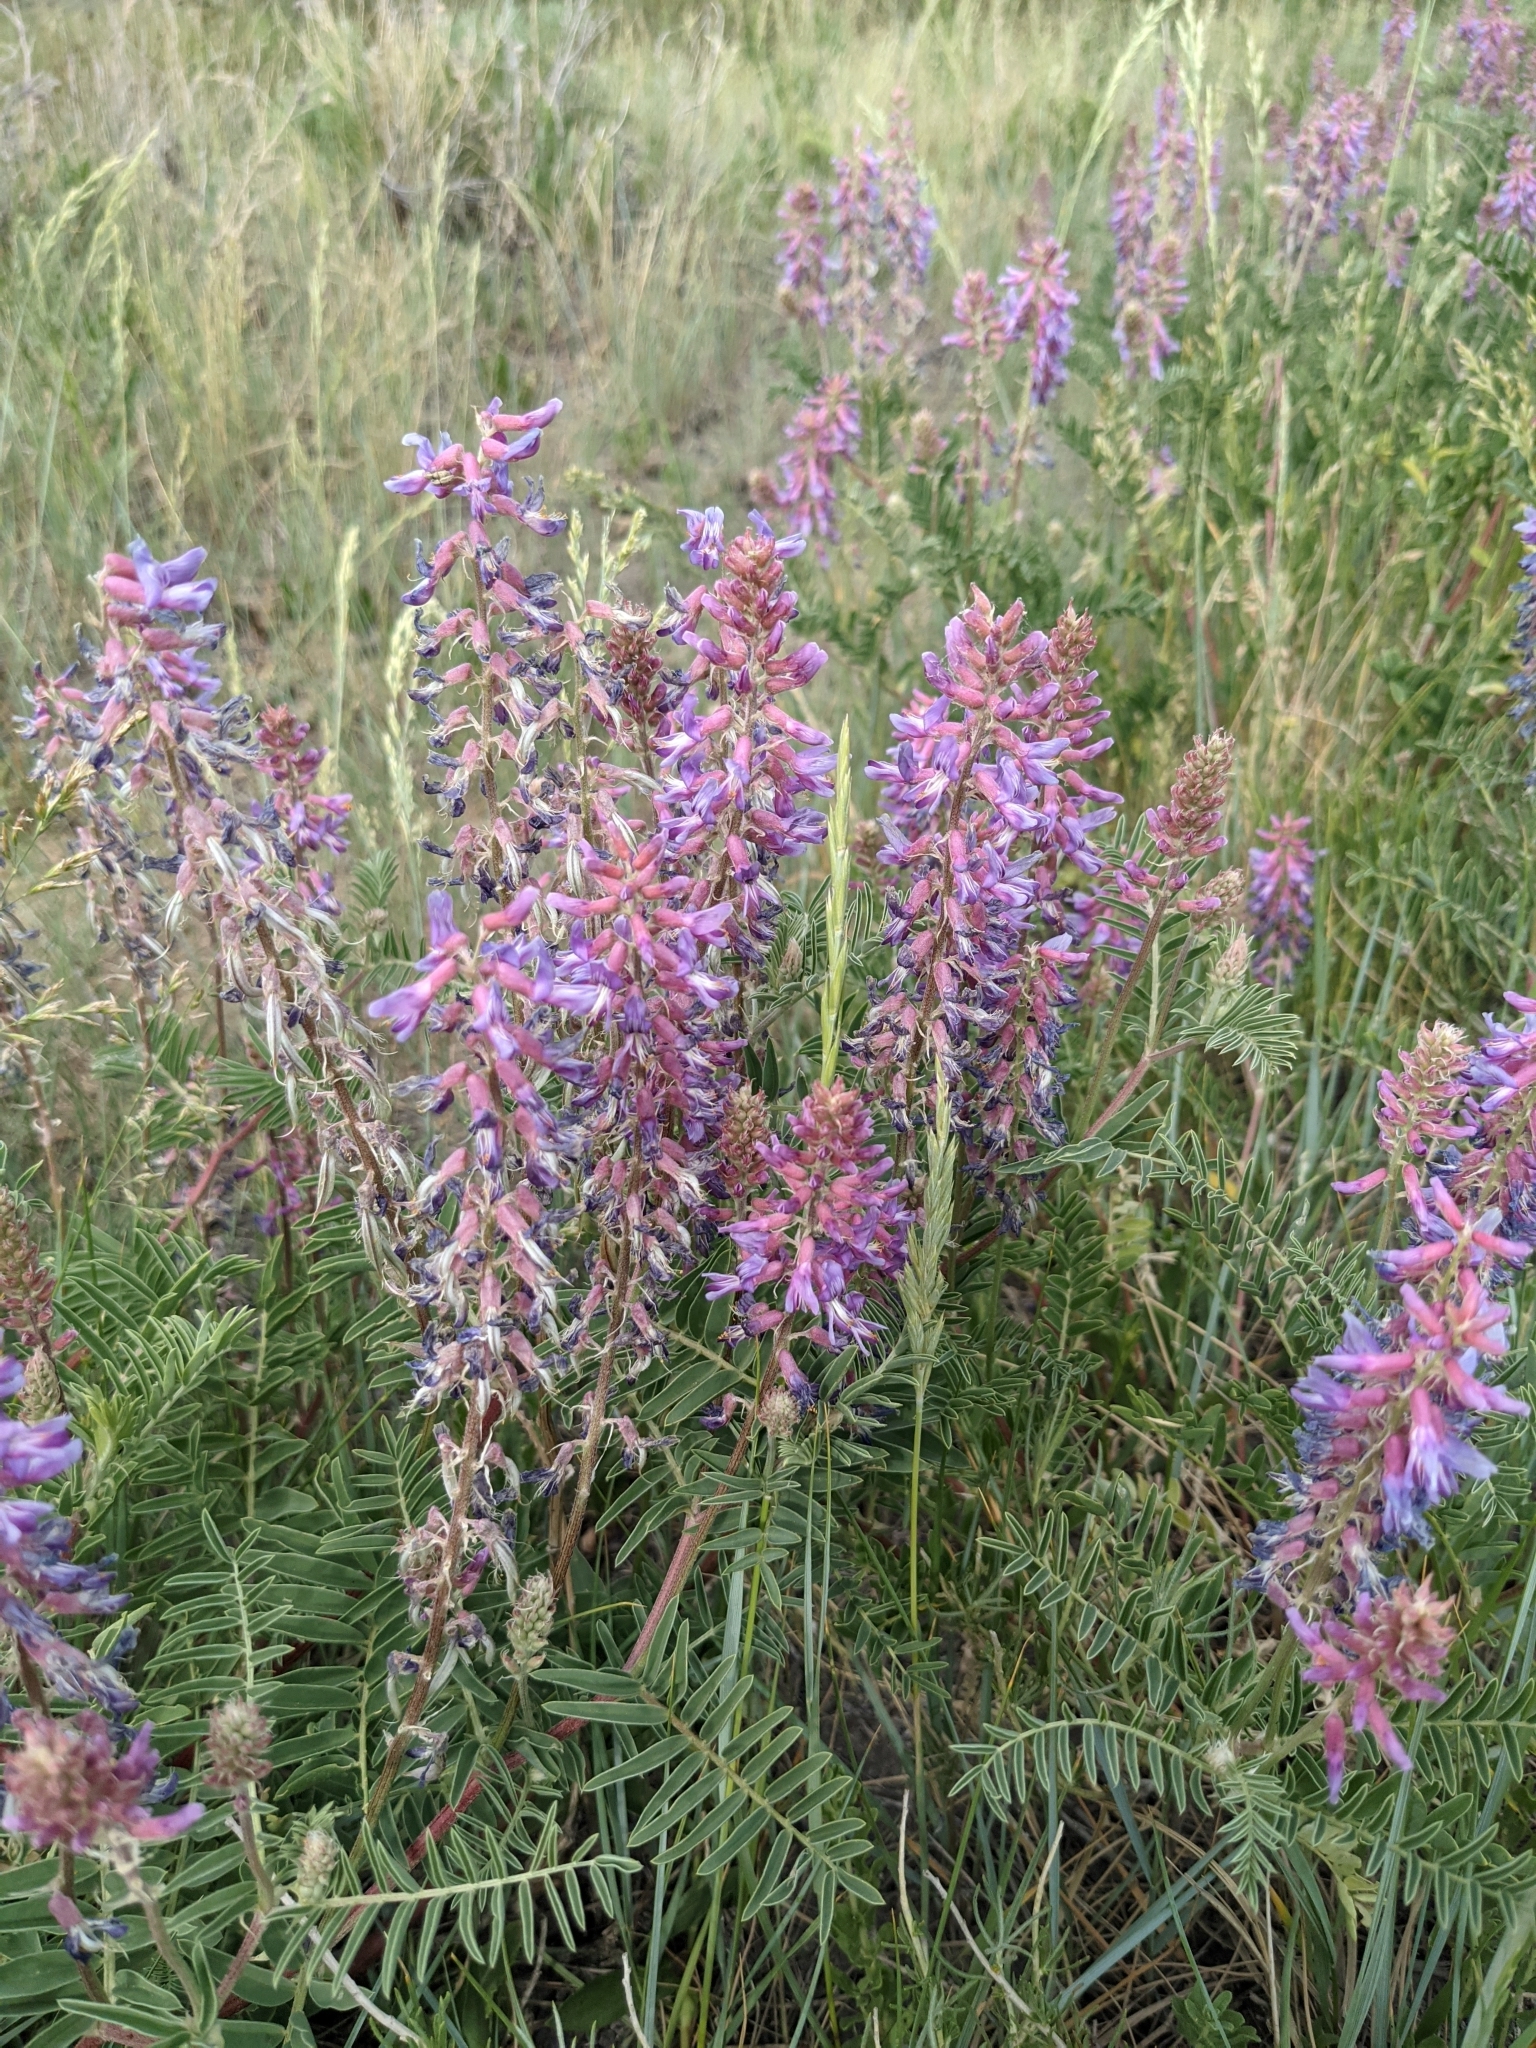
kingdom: Plantae
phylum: Tracheophyta
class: Magnoliopsida
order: Fabales
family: Fabaceae
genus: Astragalus
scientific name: Astragalus bisulcatus
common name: Two-groove milk-vetch
